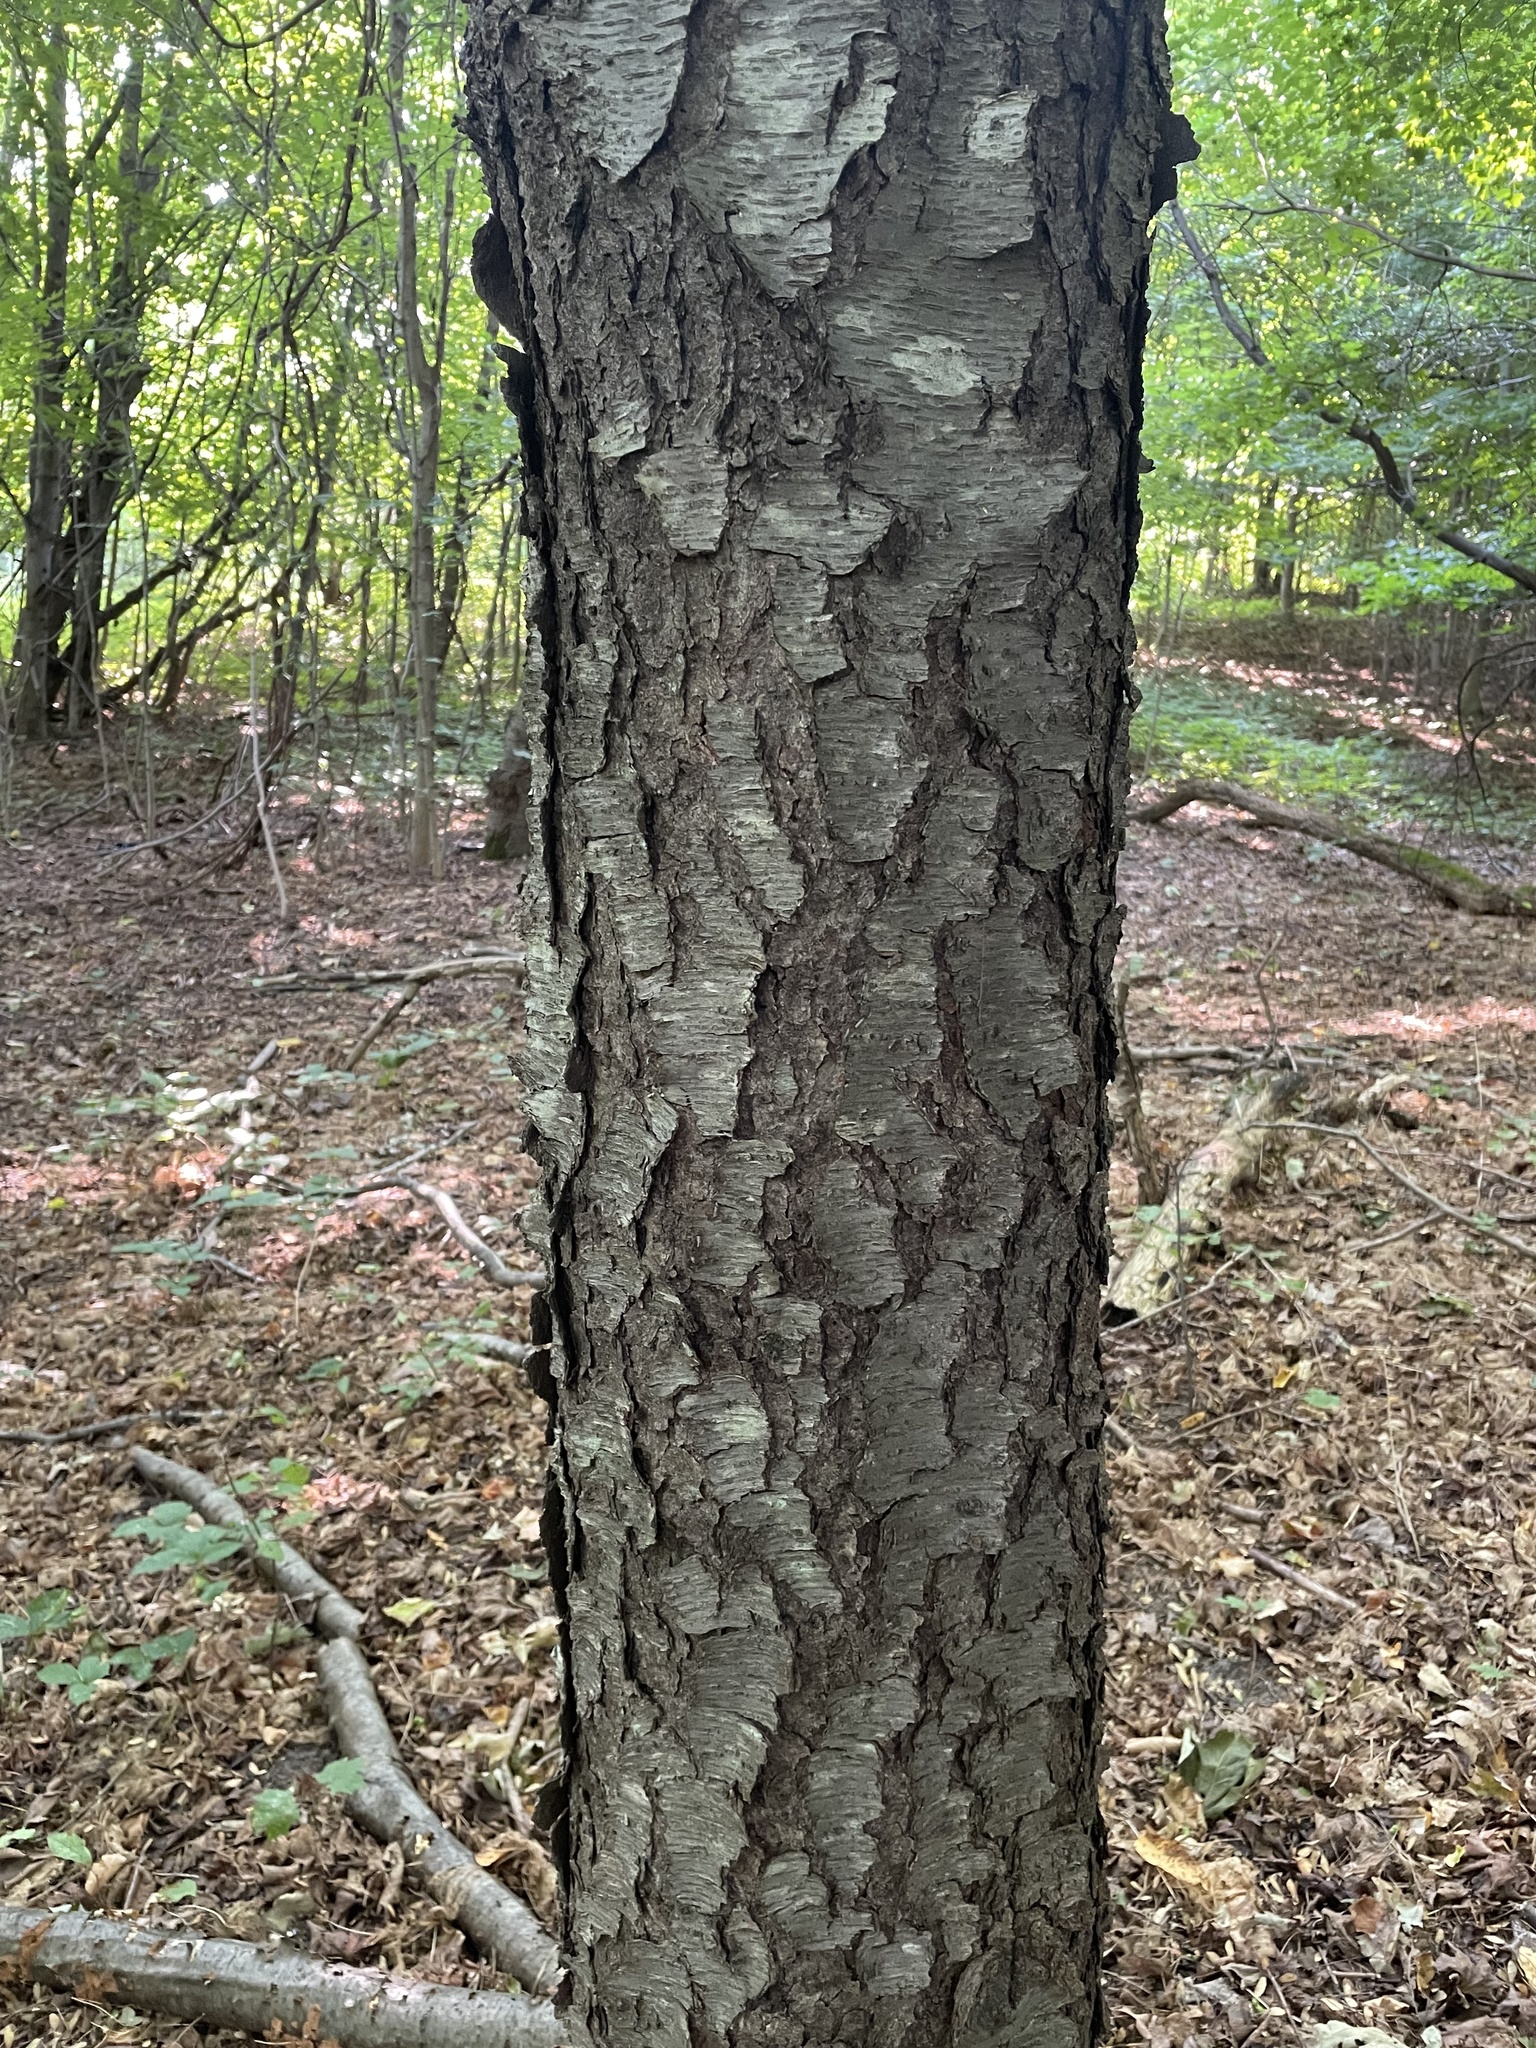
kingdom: Plantae
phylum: Tracheophyta
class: Magnoliopsida
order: Rosales
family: Rosaceae
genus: Prunus
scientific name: Prunus serotina
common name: Black cherry
